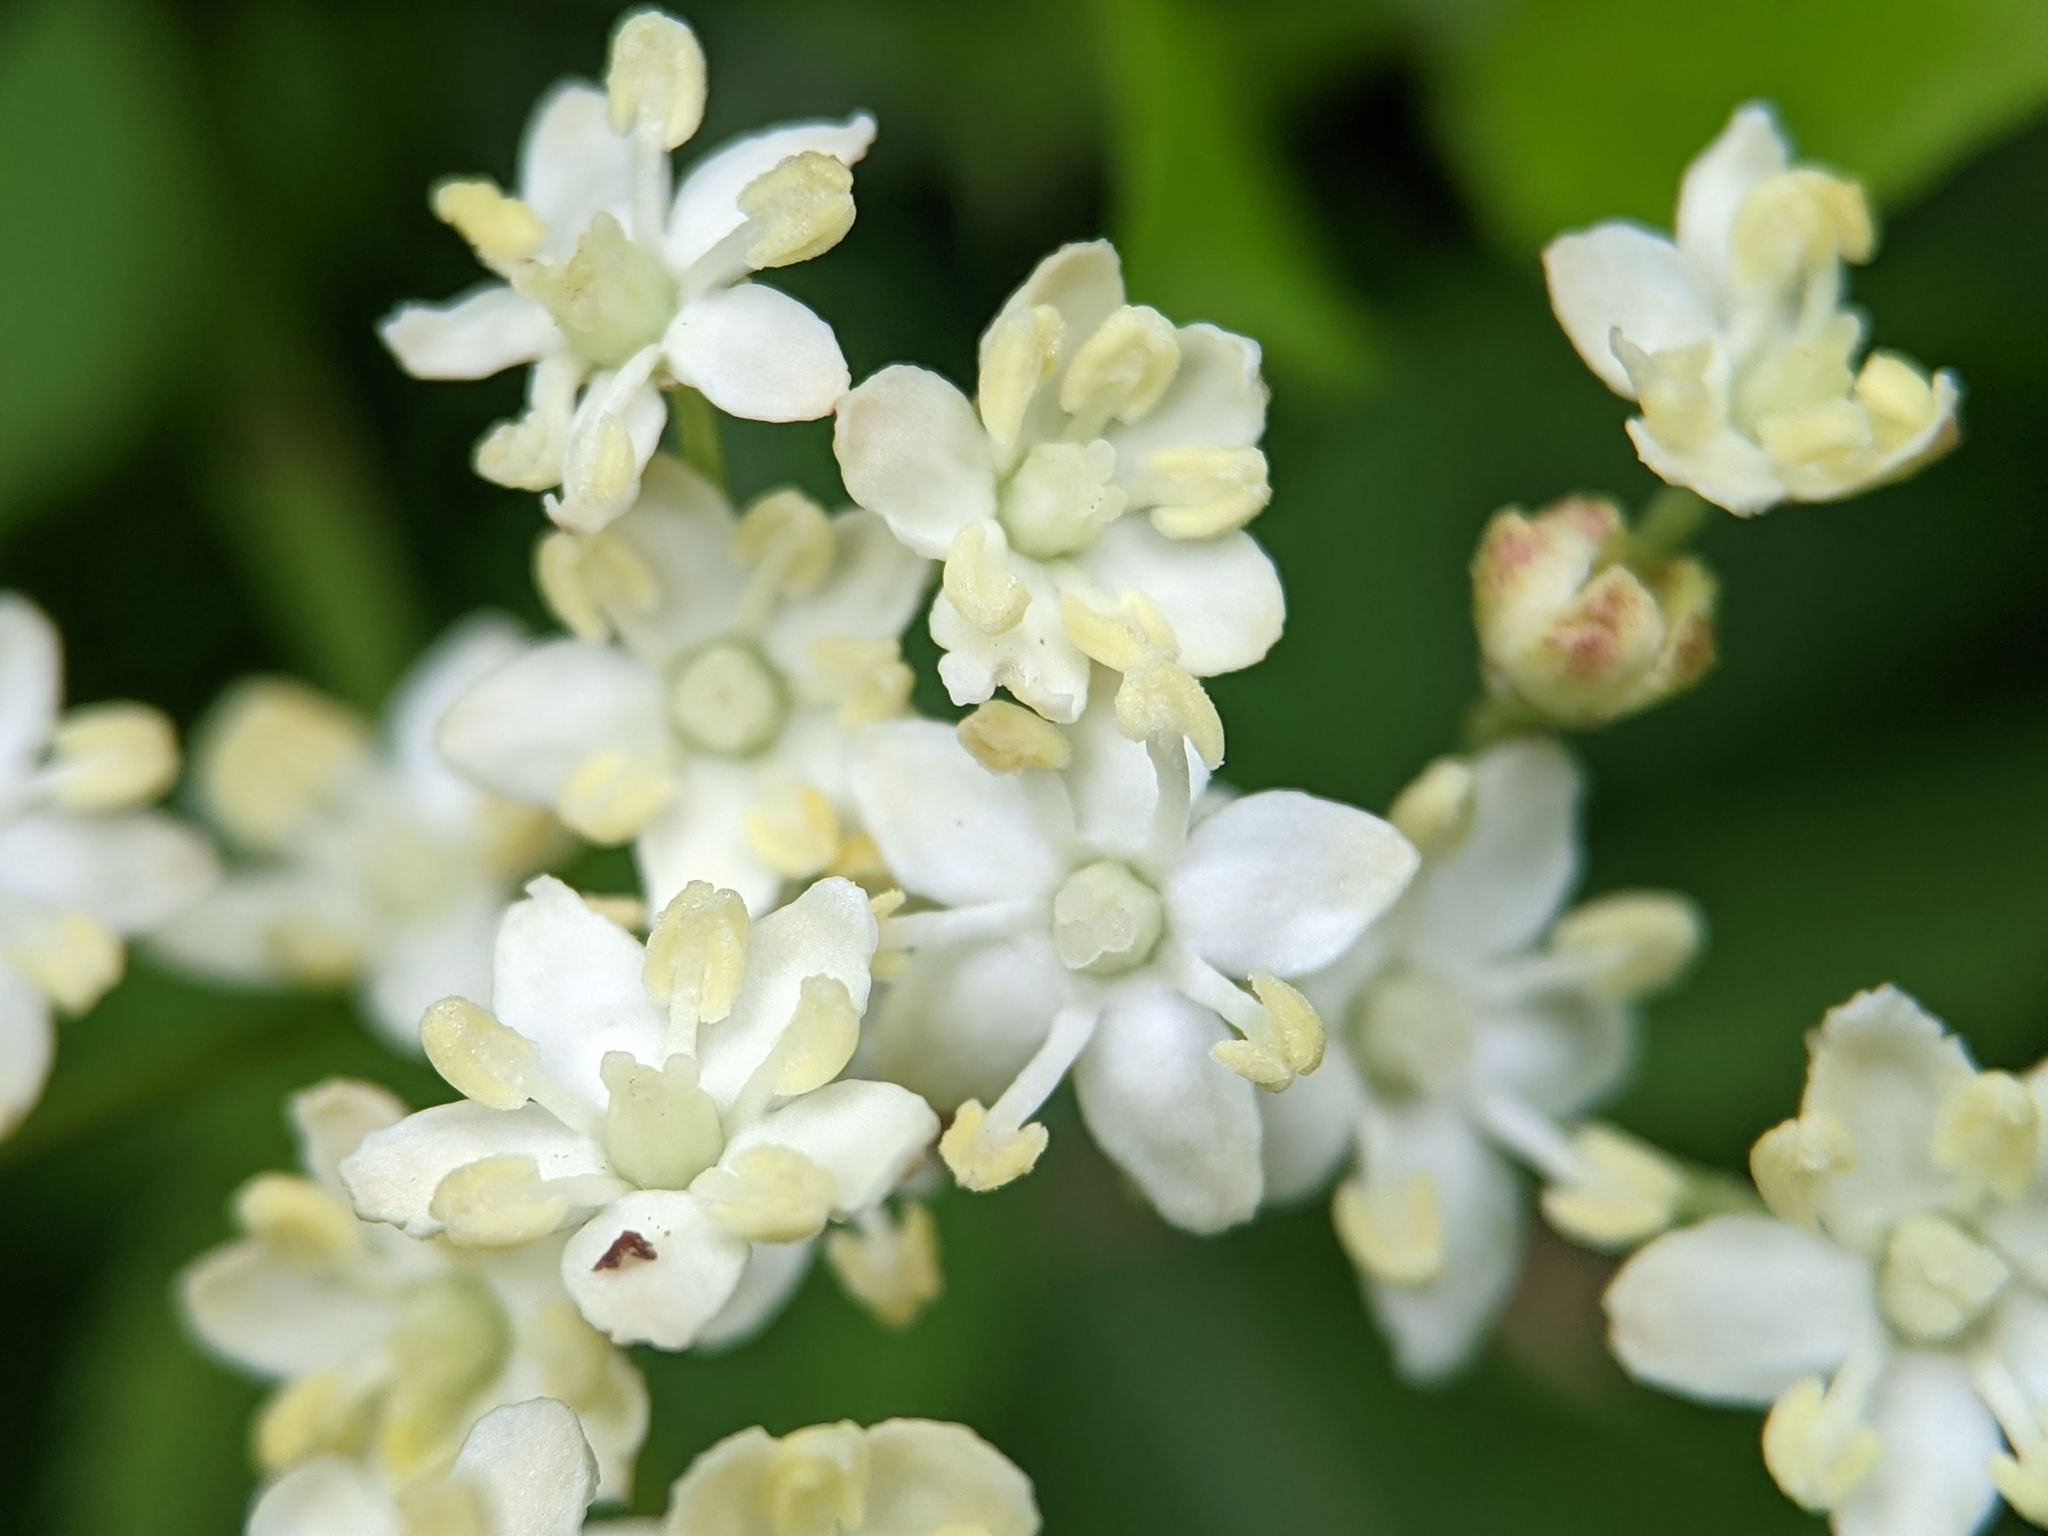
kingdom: Plantae
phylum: Tracheophyta
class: Magnoliopsida
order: Dipsacales
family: Viburnaceae
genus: Sambucus
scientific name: Sambucus nigra
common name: Elder
